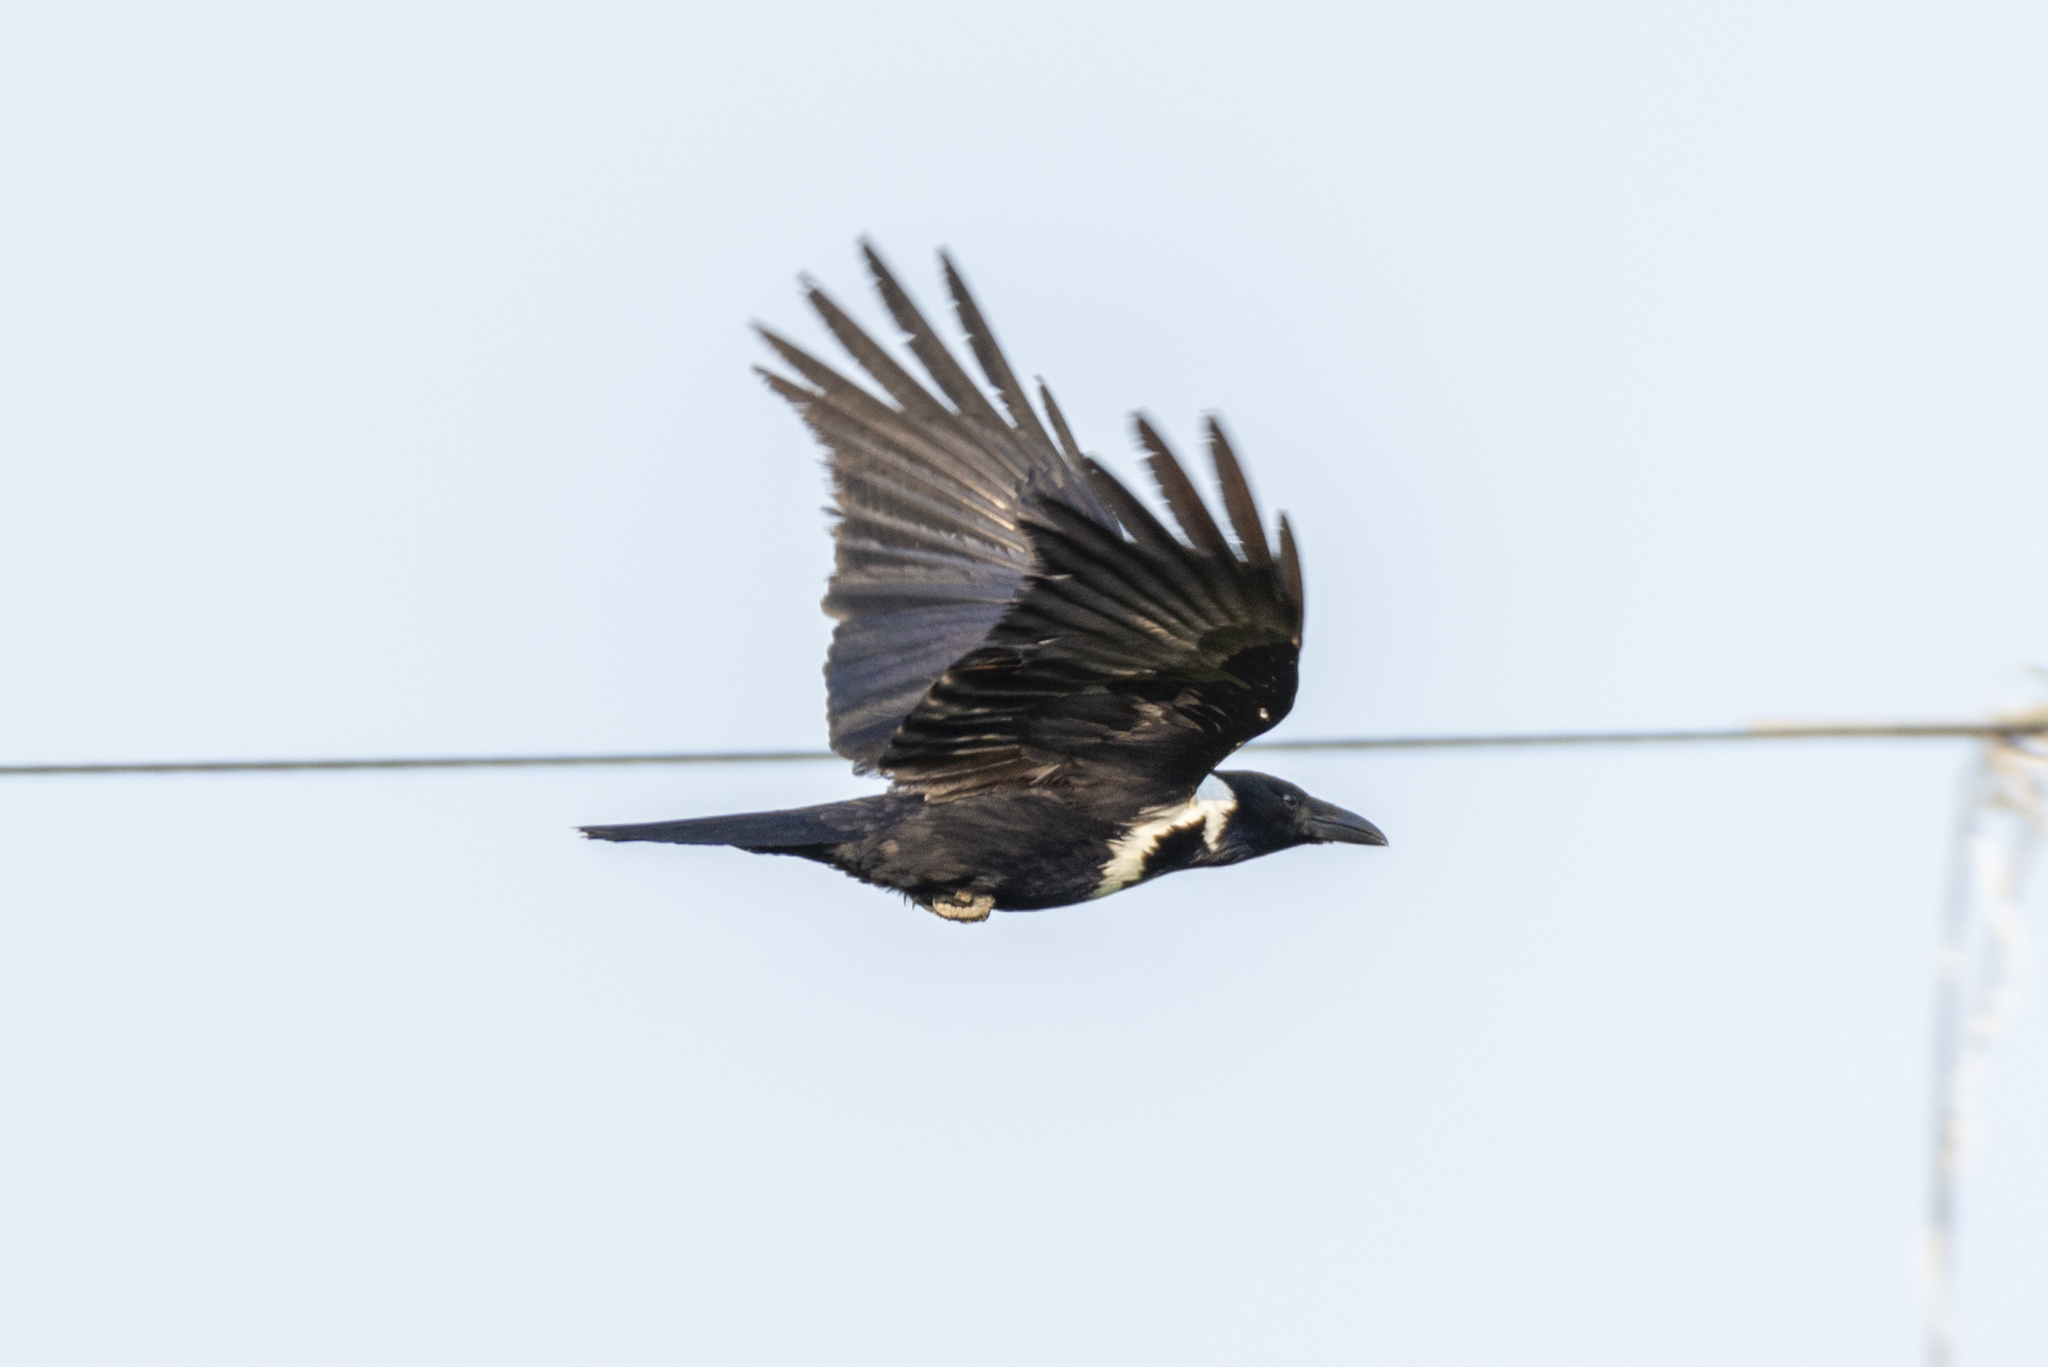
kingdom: Animalia
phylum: Chordata
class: Aves
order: Passeriformes
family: Corvidae
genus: Corvus
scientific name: Corvus pectoralis
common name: Collared crow
